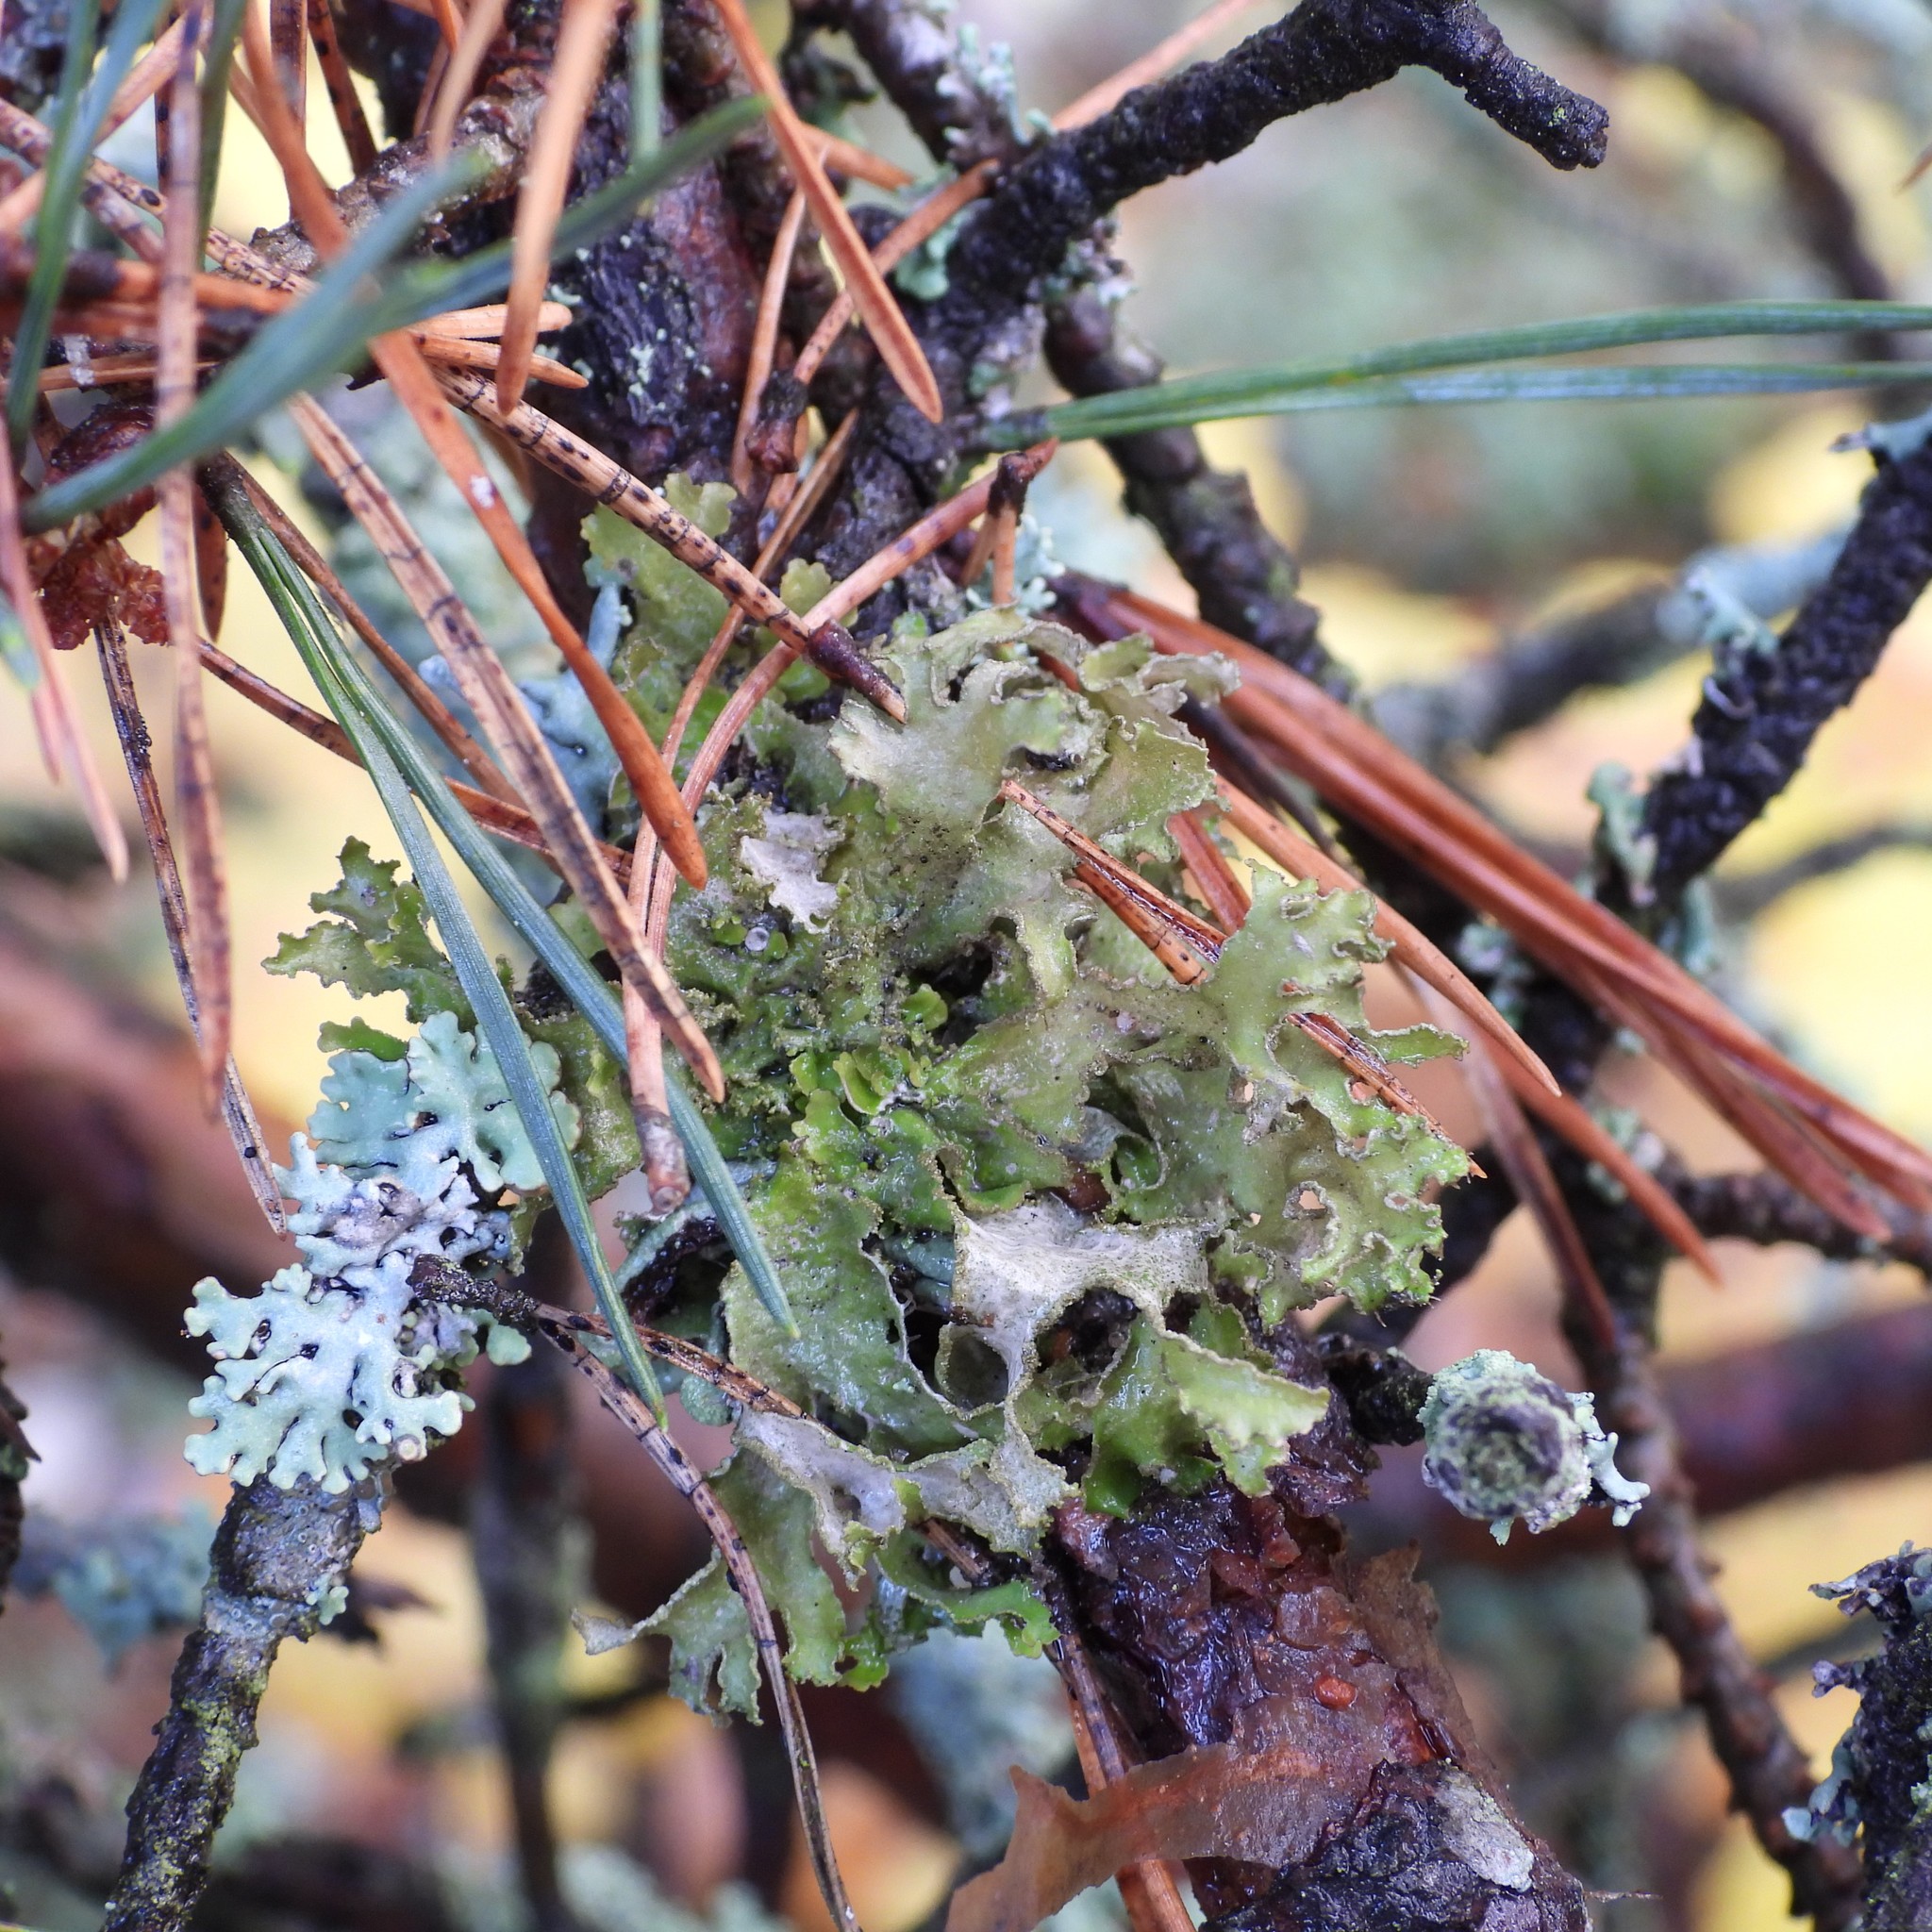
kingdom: Fungi
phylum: Ascomycota
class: Lecanoromycetes
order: Lecanorales
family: Parmeliaceae
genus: Nephromopsis
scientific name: Nephromopsis chlorophylla
